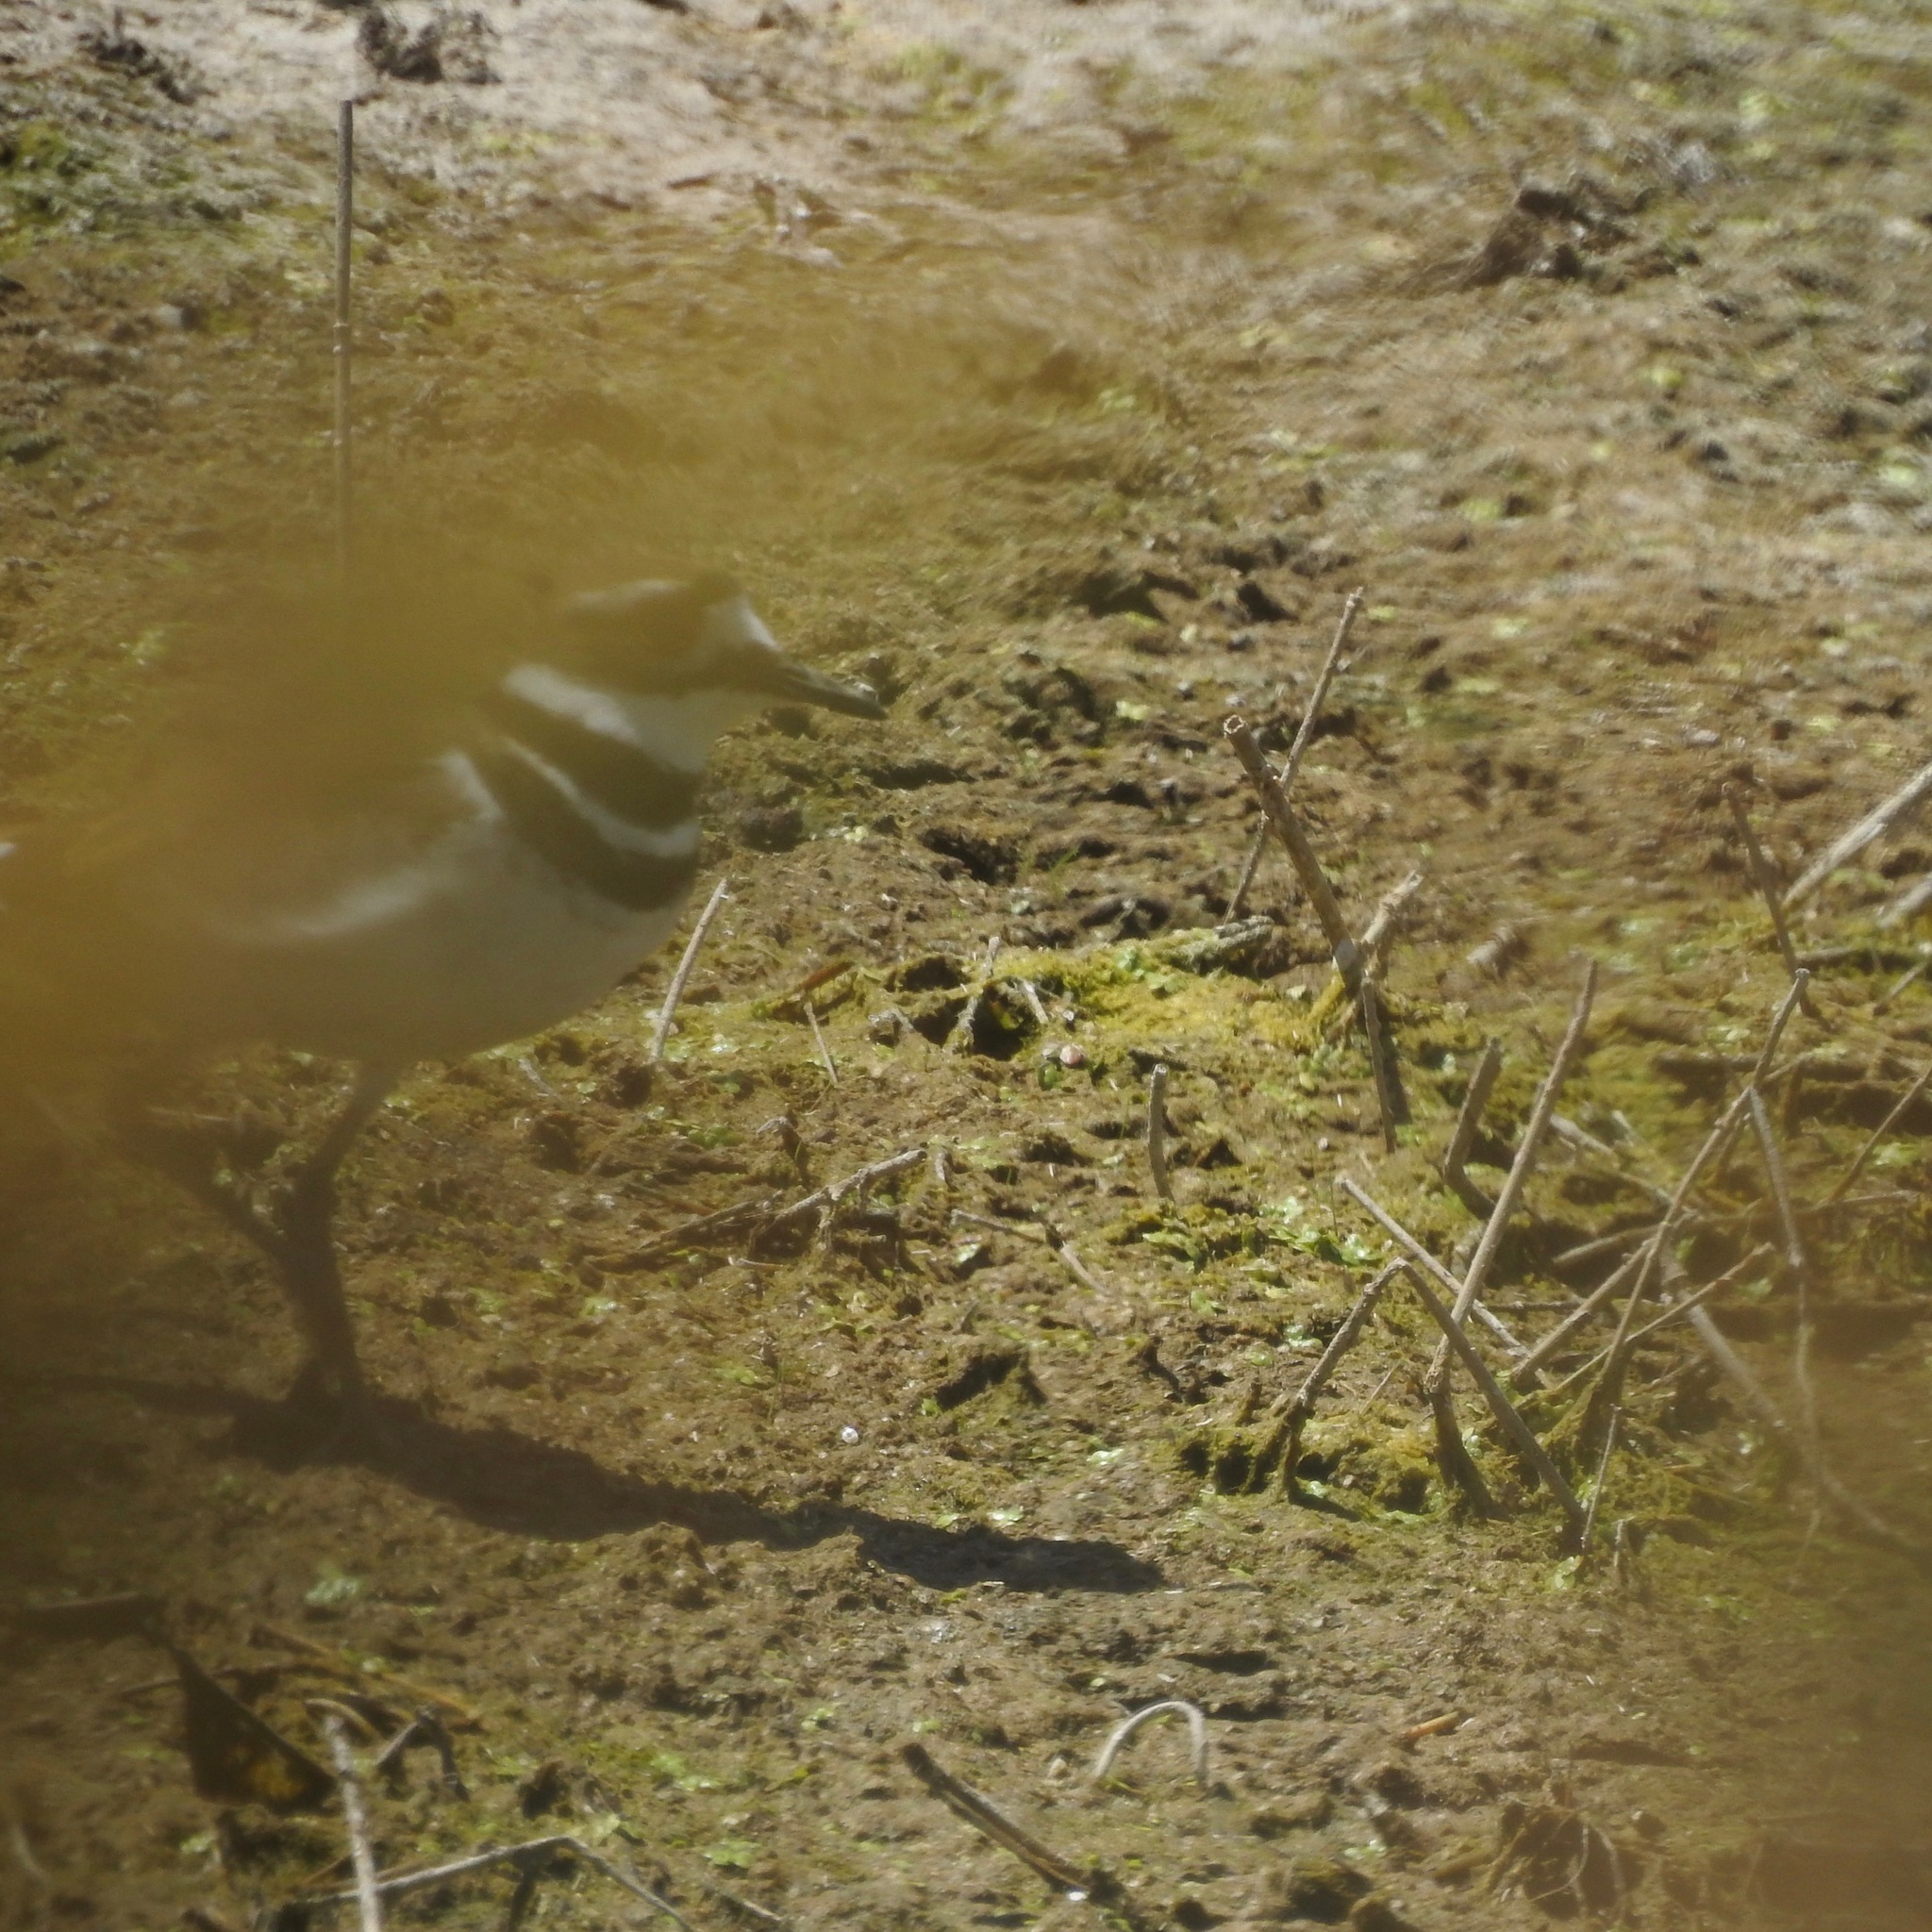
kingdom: Animalia
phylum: Chordata
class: Aves
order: Charadriiformes
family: Charadriidae
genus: Charadrius
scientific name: Charadrius vociferus
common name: Killdeer
